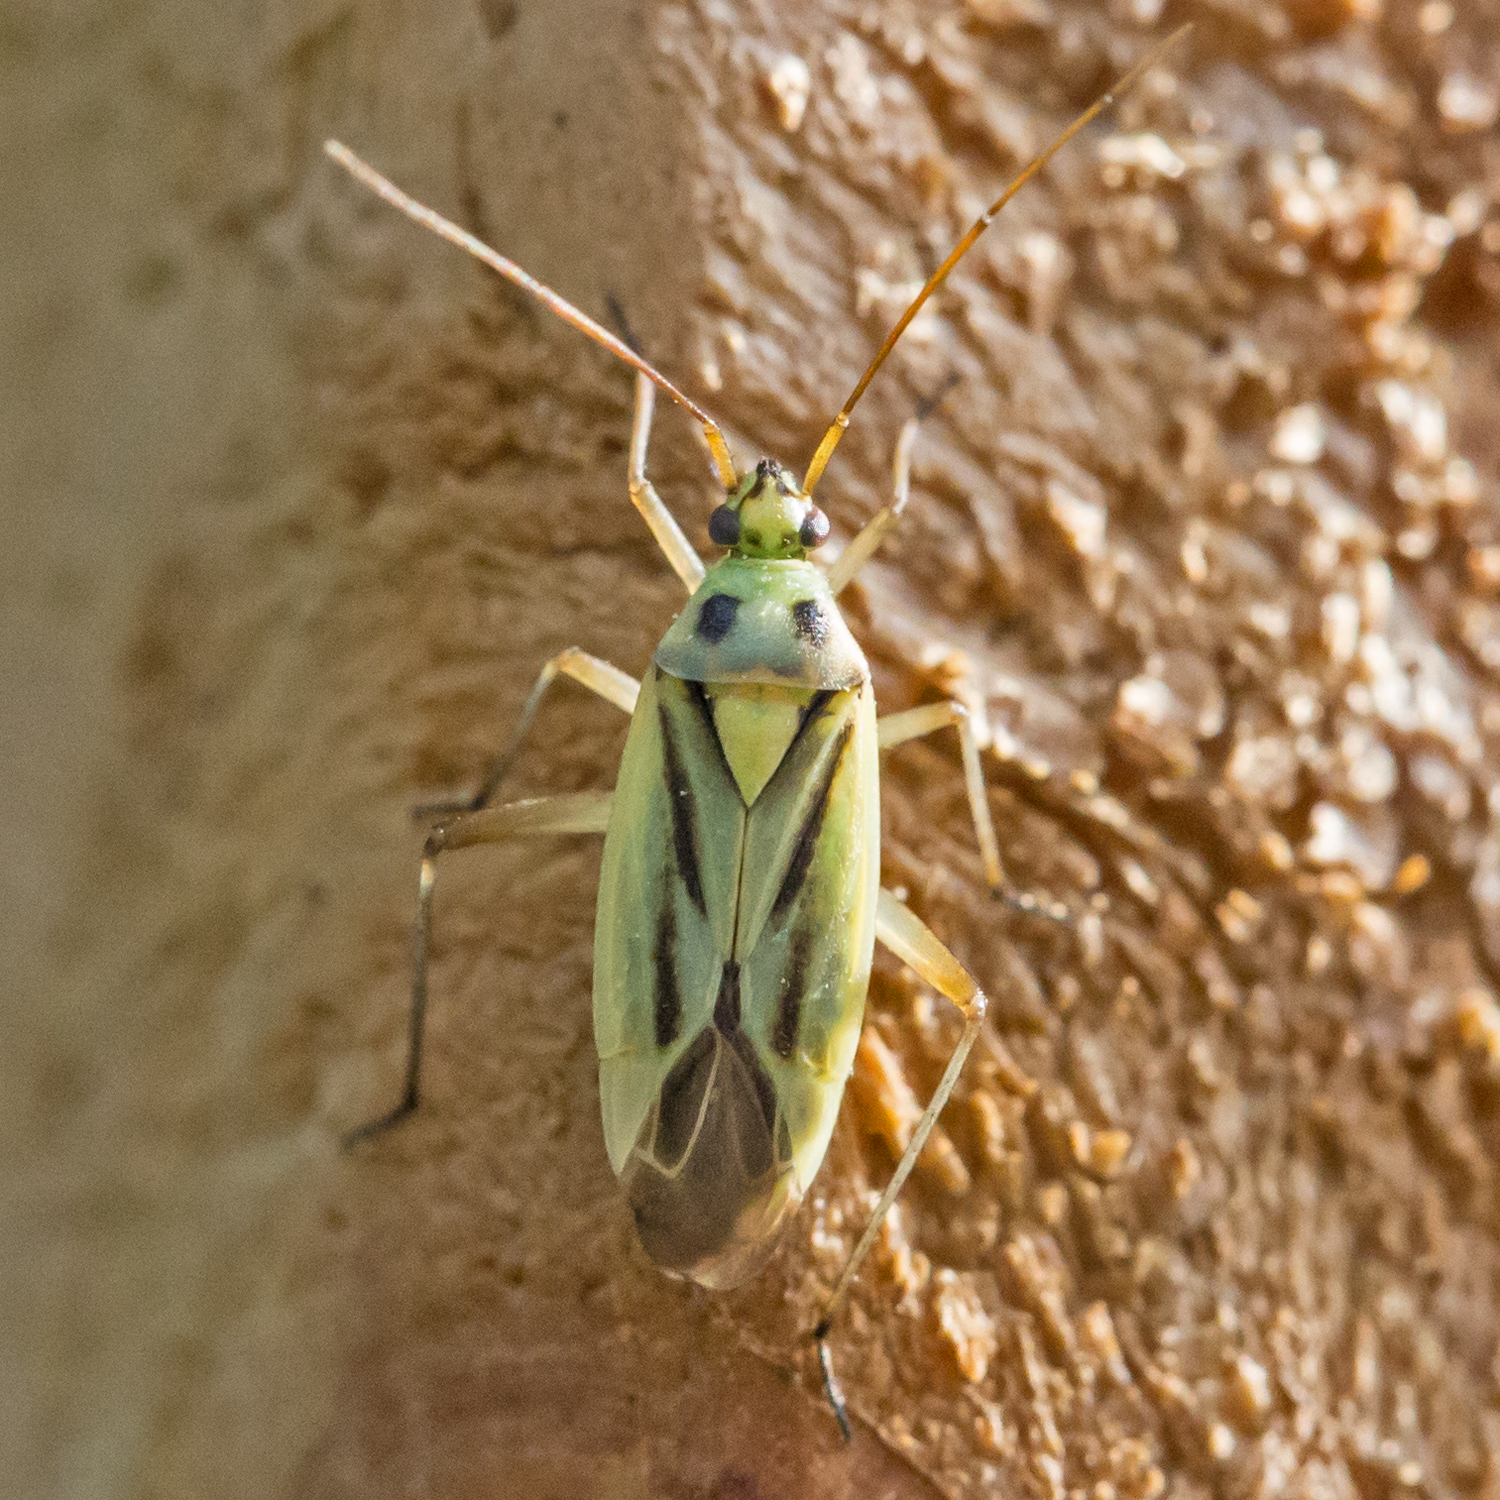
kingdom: Animalia
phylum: Arthropoda
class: Insecta
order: Hemiptera
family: Miridae
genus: Stenotus
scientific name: Stenotus binotatus
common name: Plant bug
